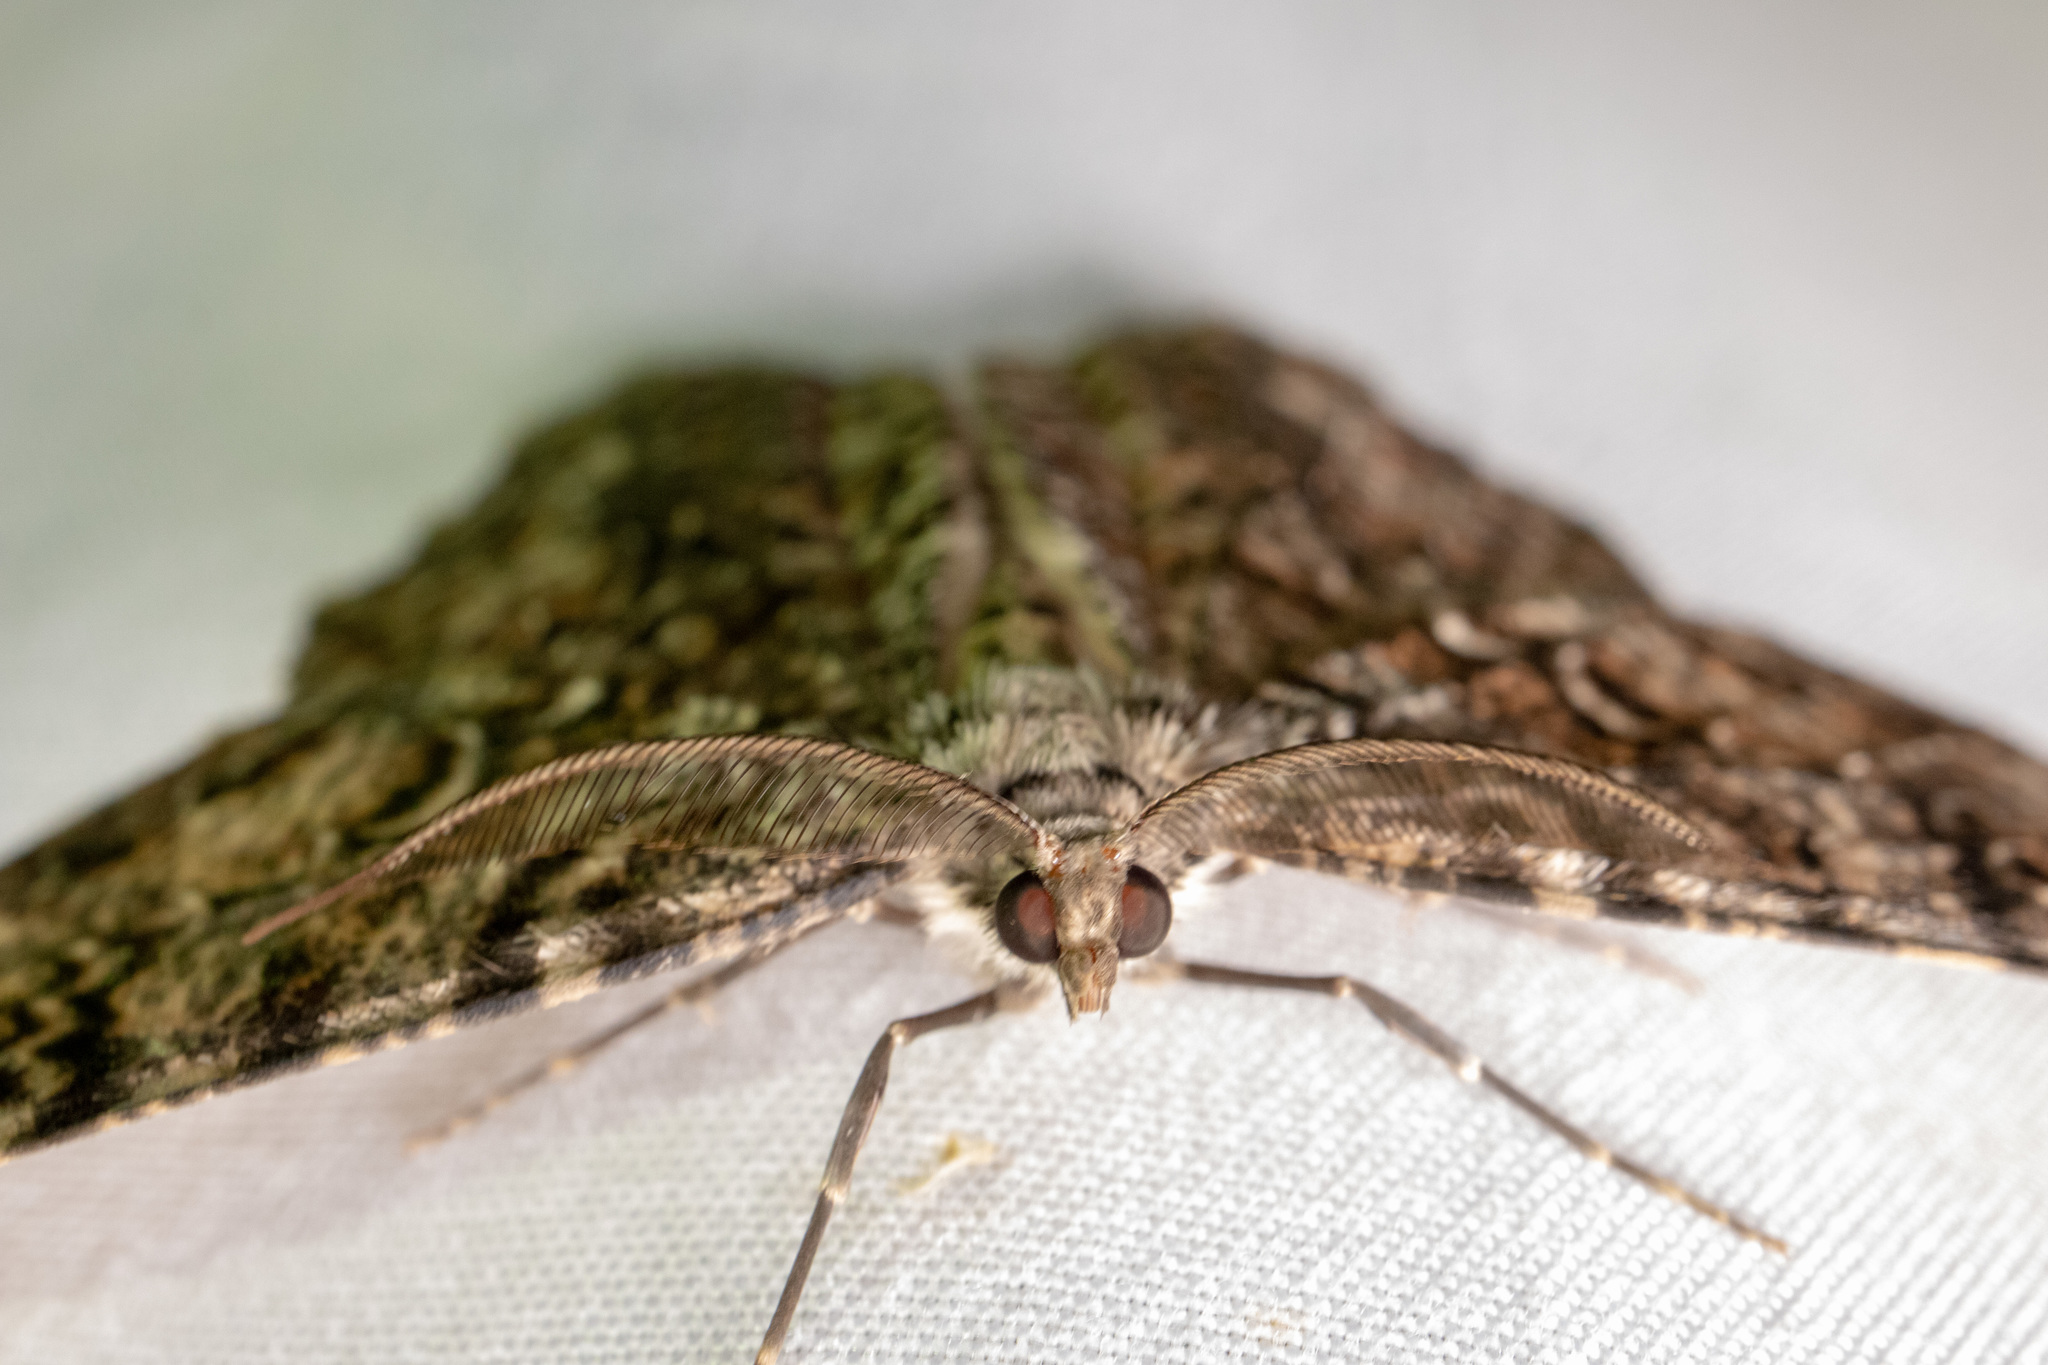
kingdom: Animalia
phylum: Arthropoda
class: Insecta
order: Lepidoptera
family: Geometridae
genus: Epimecis
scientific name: Epimecis hortaria
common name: Tulip-tree beauty
